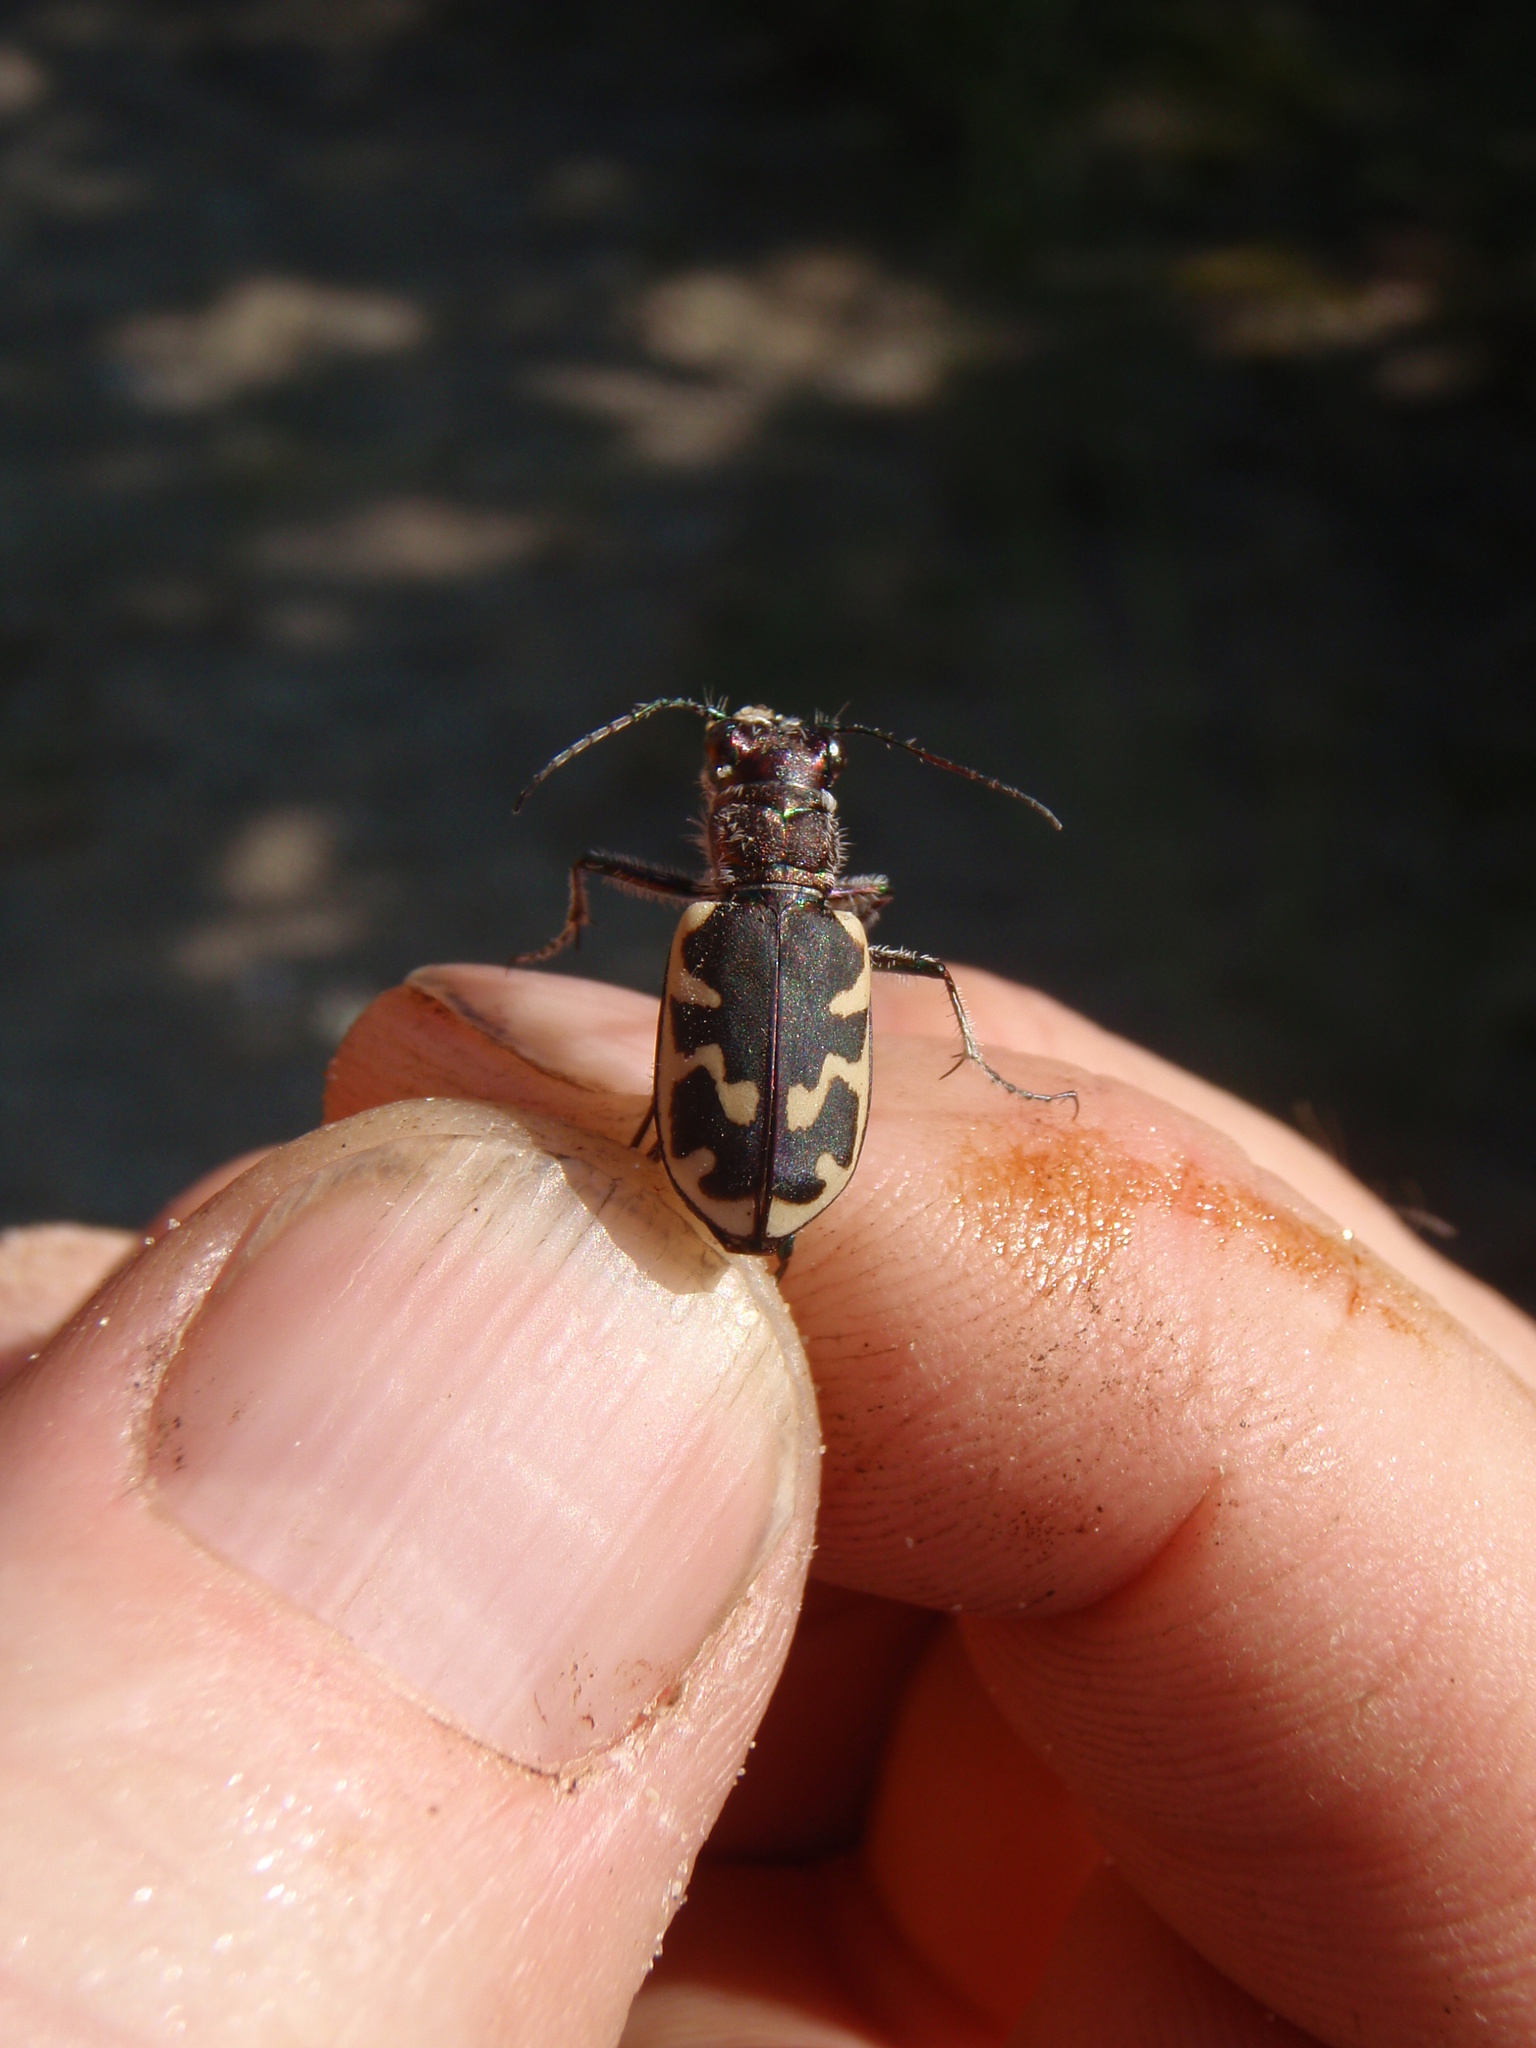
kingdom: Animalia
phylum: Arthropoda
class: Insecta
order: Coleoptera
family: Carabidae
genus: Cicindela
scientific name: Cicindela formosa
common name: Big sand tiger beetle
